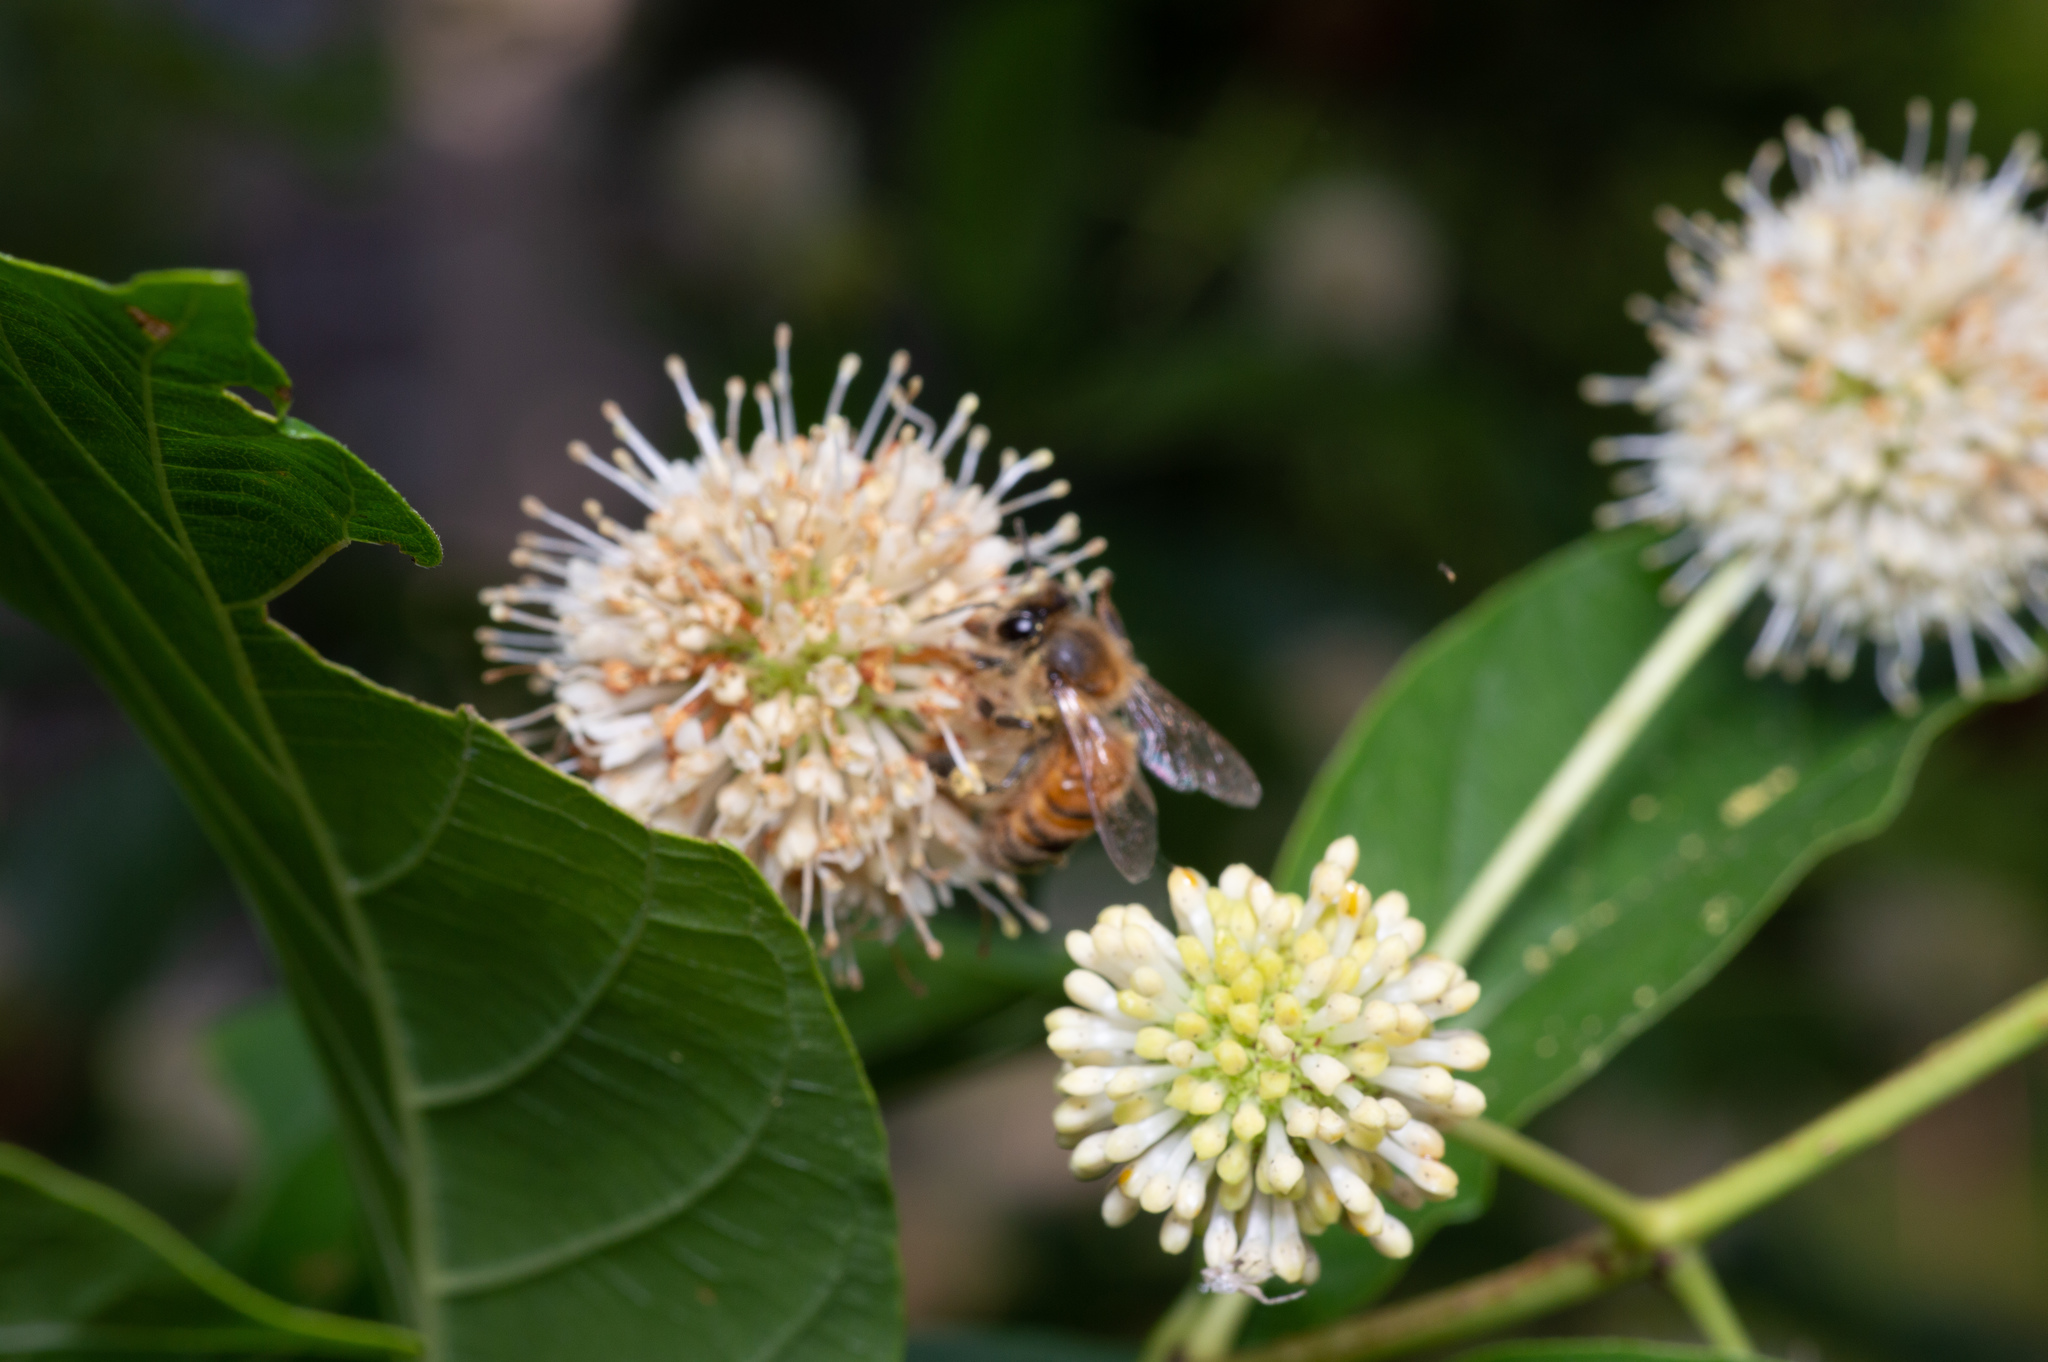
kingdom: Animalia
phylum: Arthropoda
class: Insecta
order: Hymenoptera
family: Apidae
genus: Apis
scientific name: Apis mellifera
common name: Honey bee
